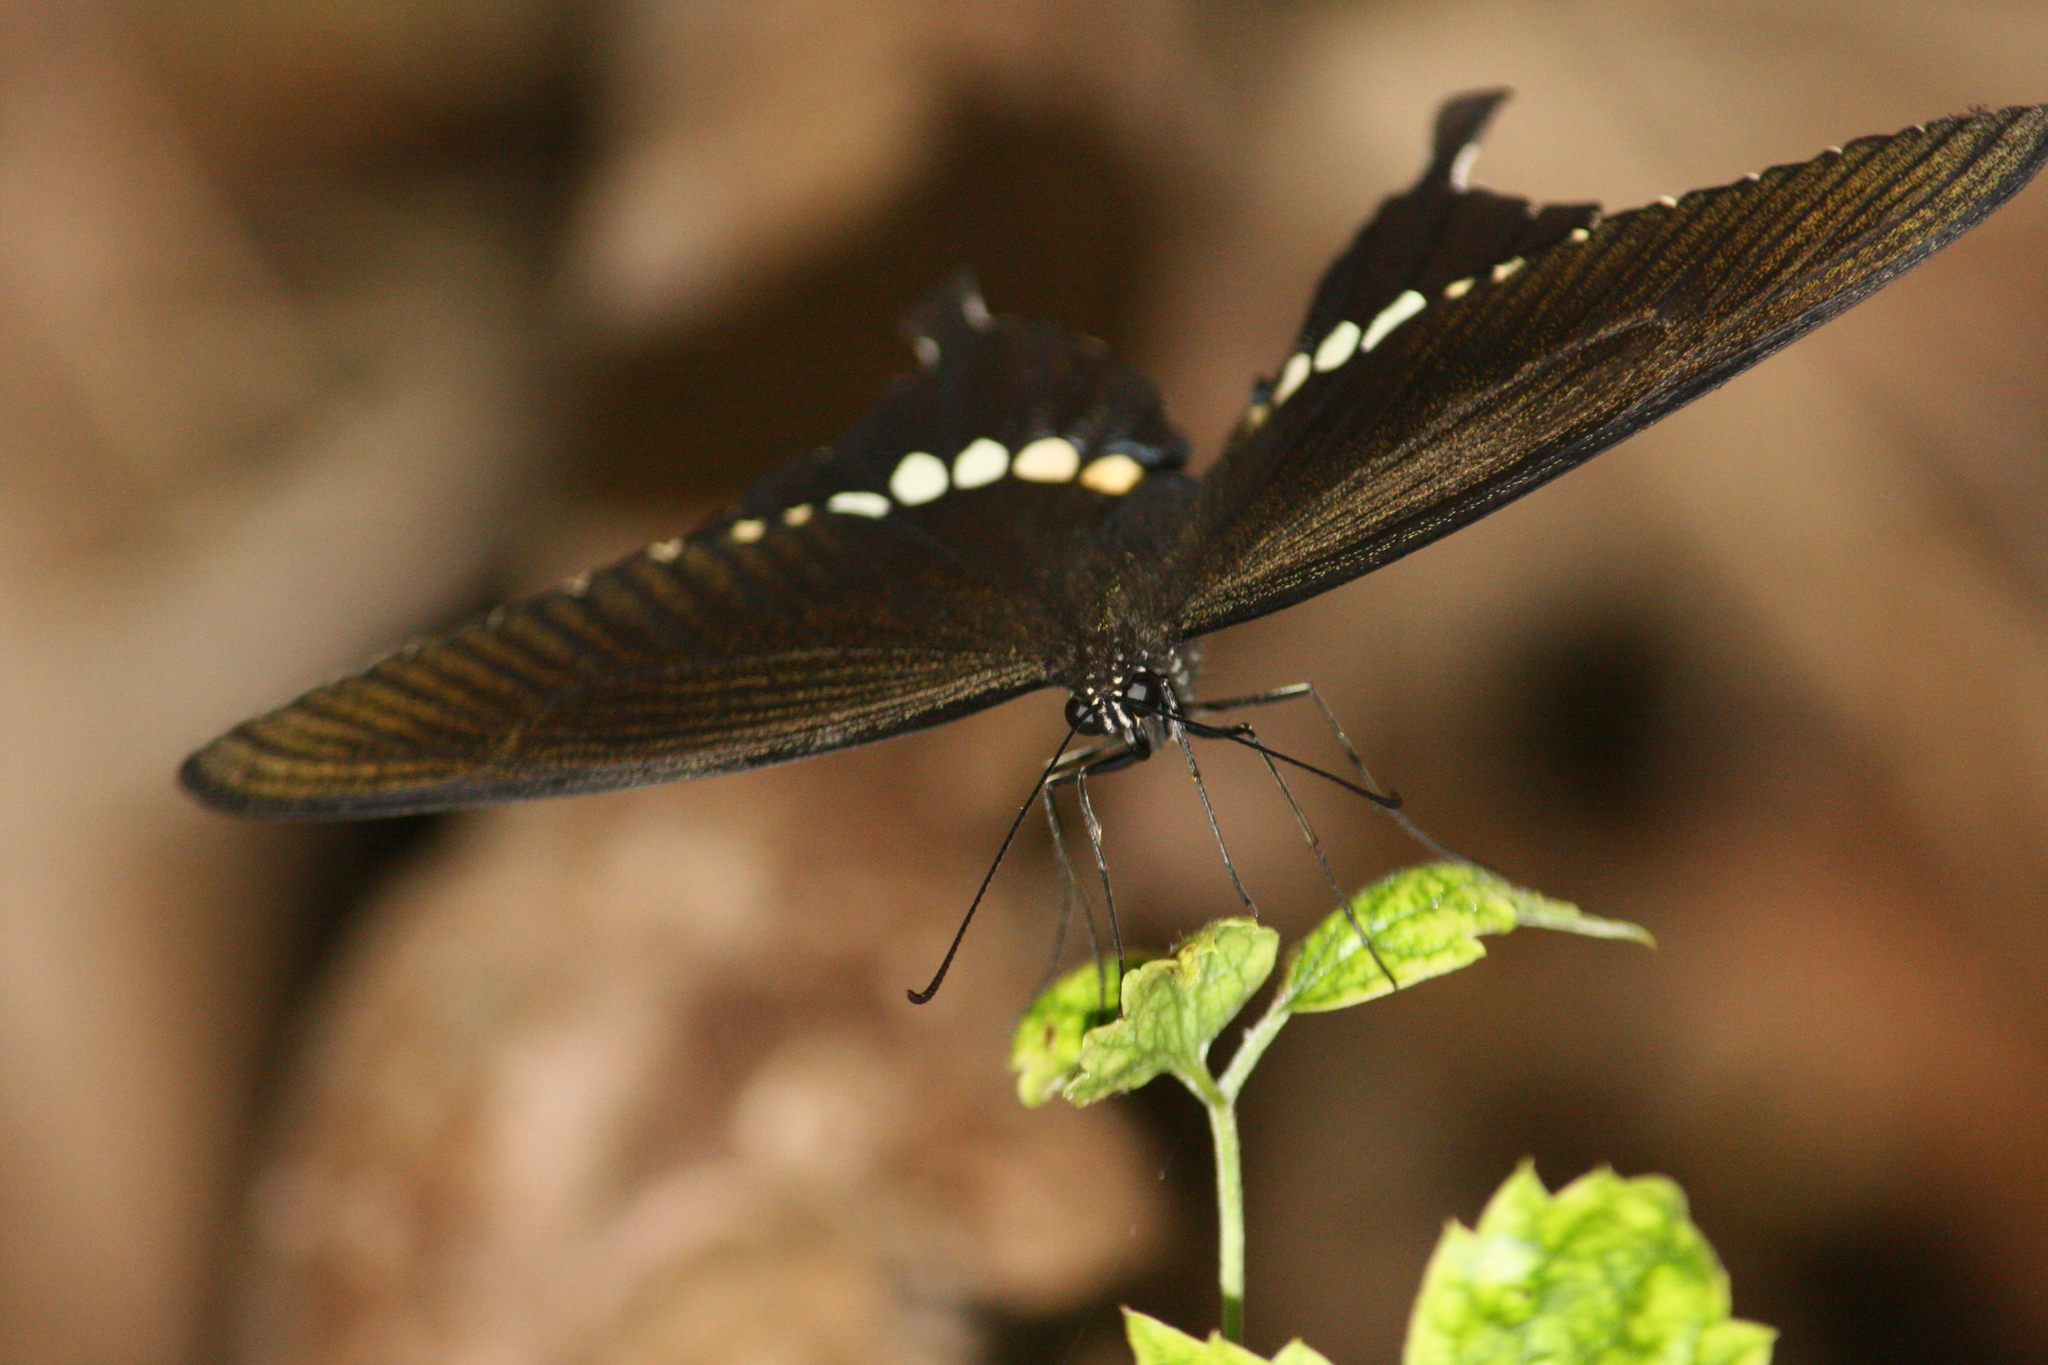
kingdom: Animalia
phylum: Arthropoda
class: Insecta
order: Lepidoptera
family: Papilionidae
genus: Papilio
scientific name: Papilio polytes
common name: Common mormon
